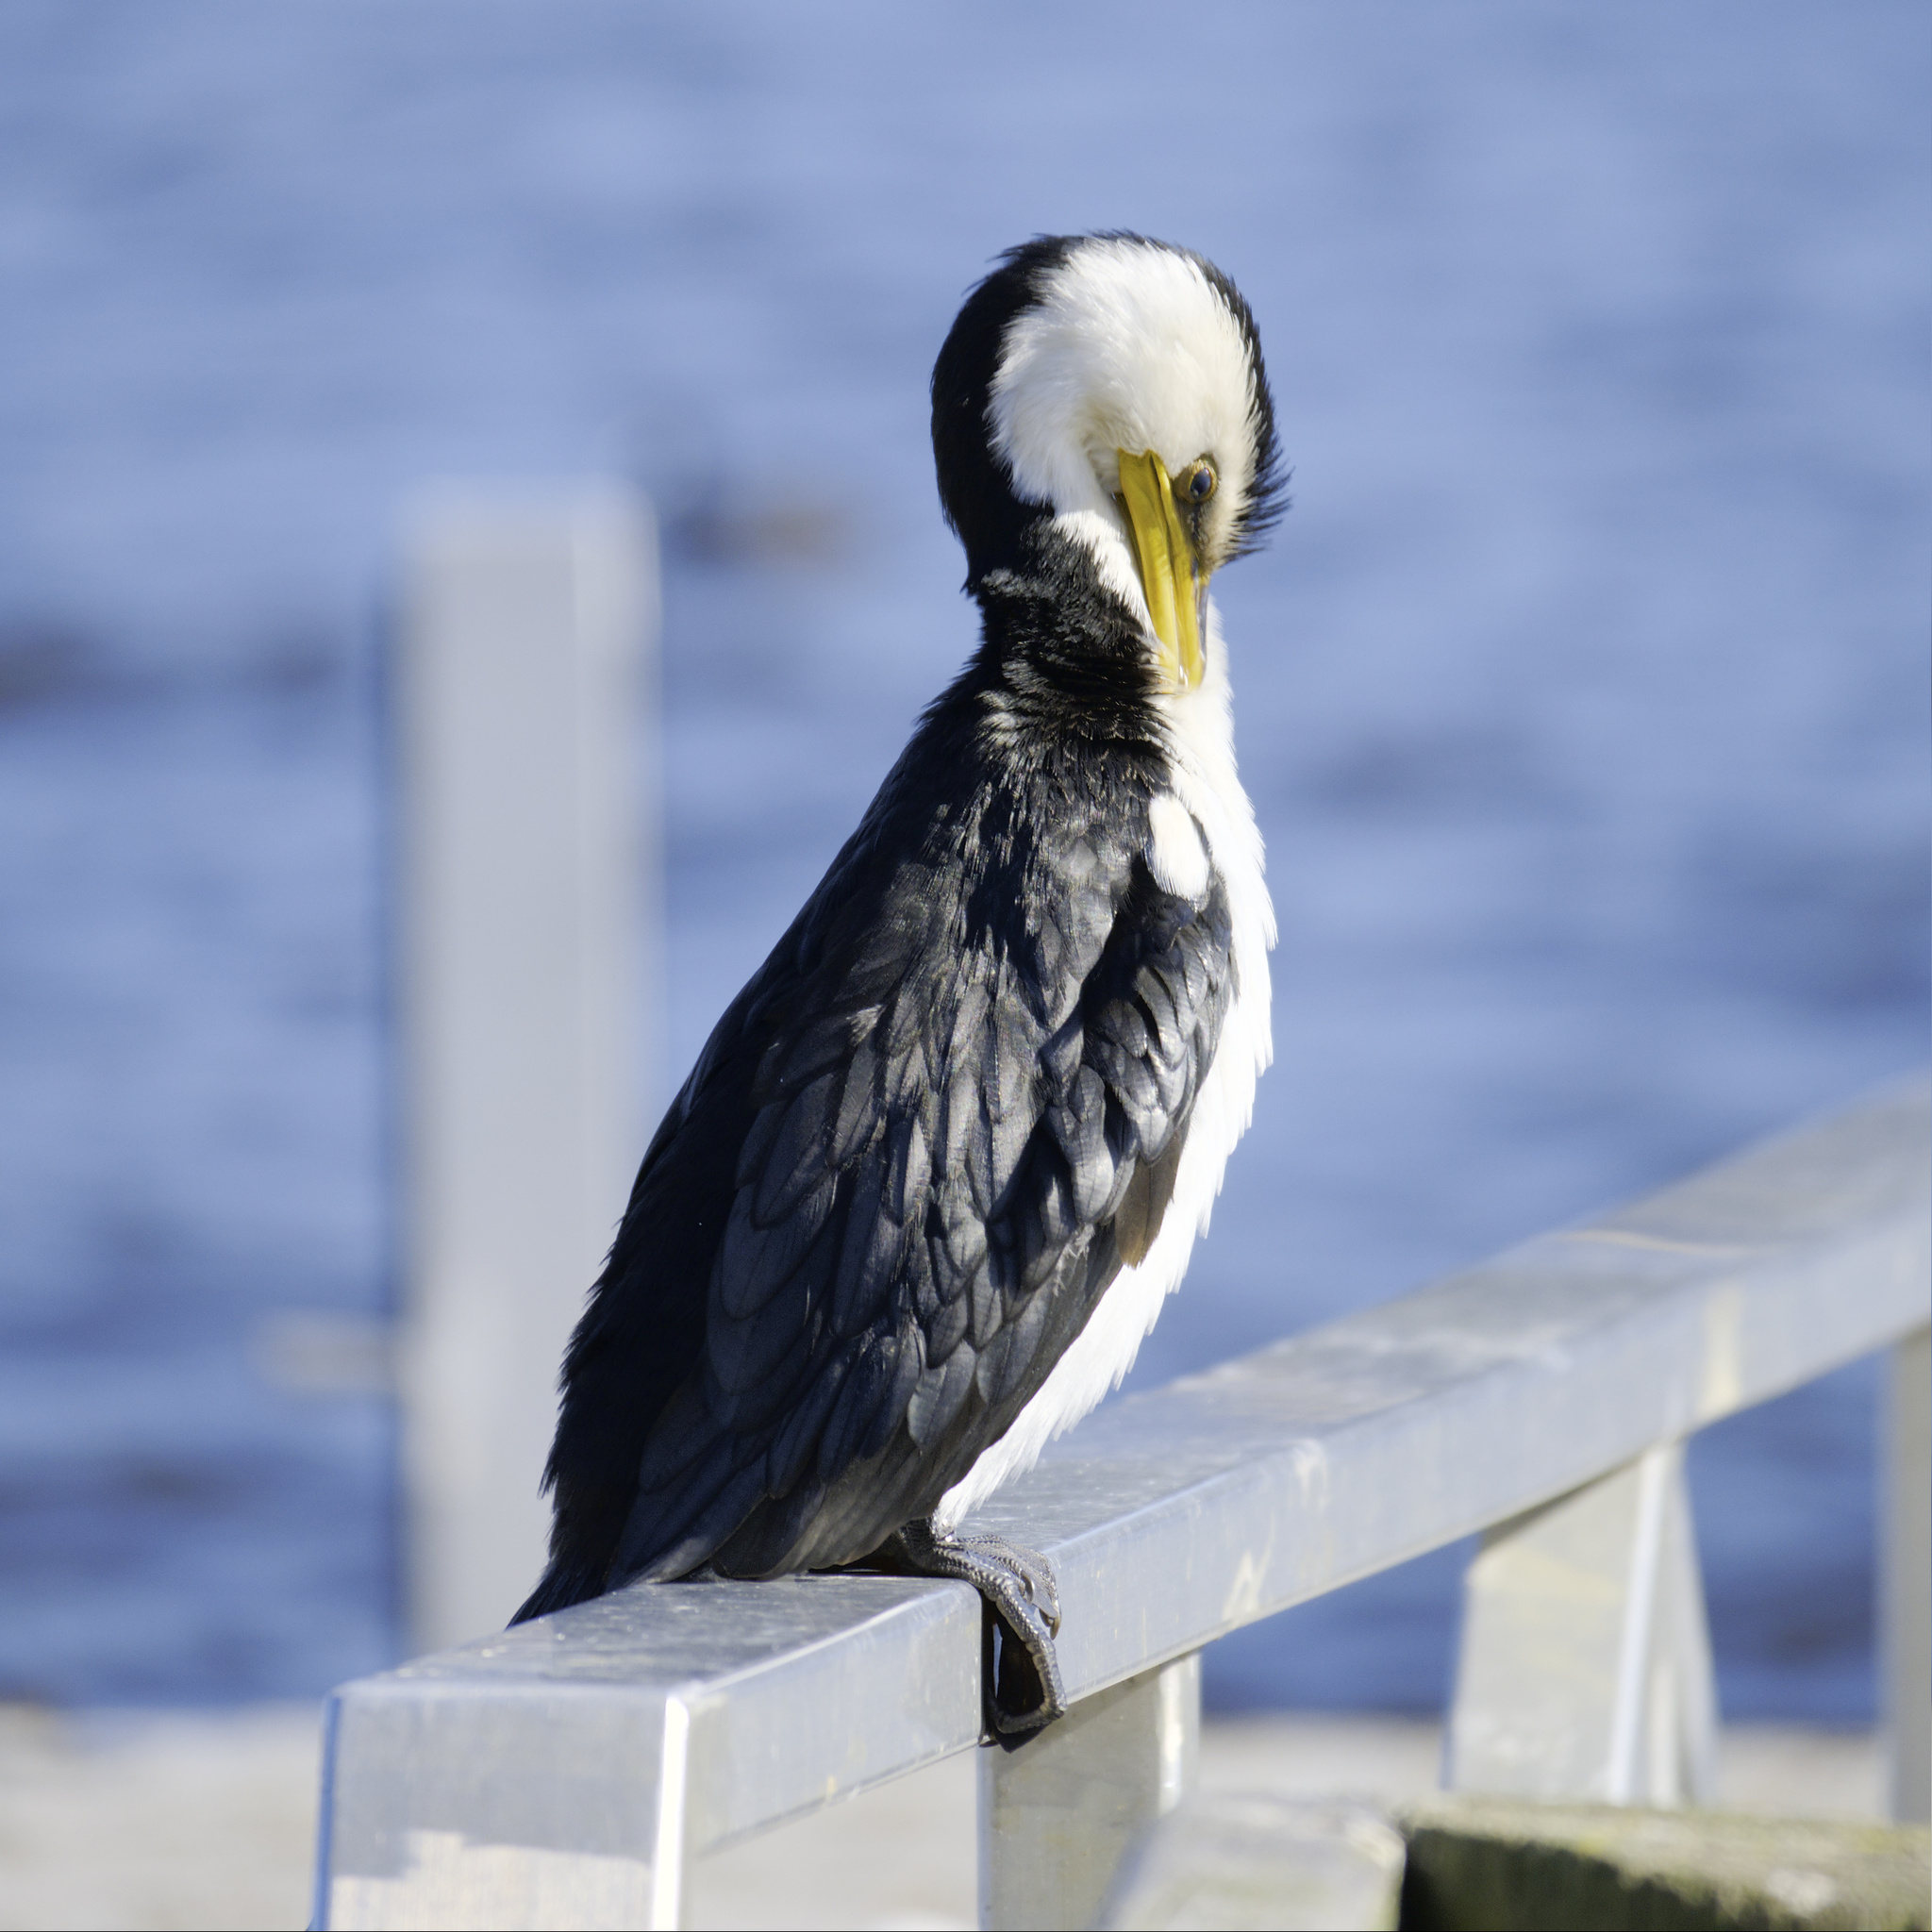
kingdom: Animalia
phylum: Chordata
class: Aves
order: Suliformes
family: Phalacrocoracidae
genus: Microcarbo
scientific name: Microcarbo melanoleucos
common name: Little pied cormorant
